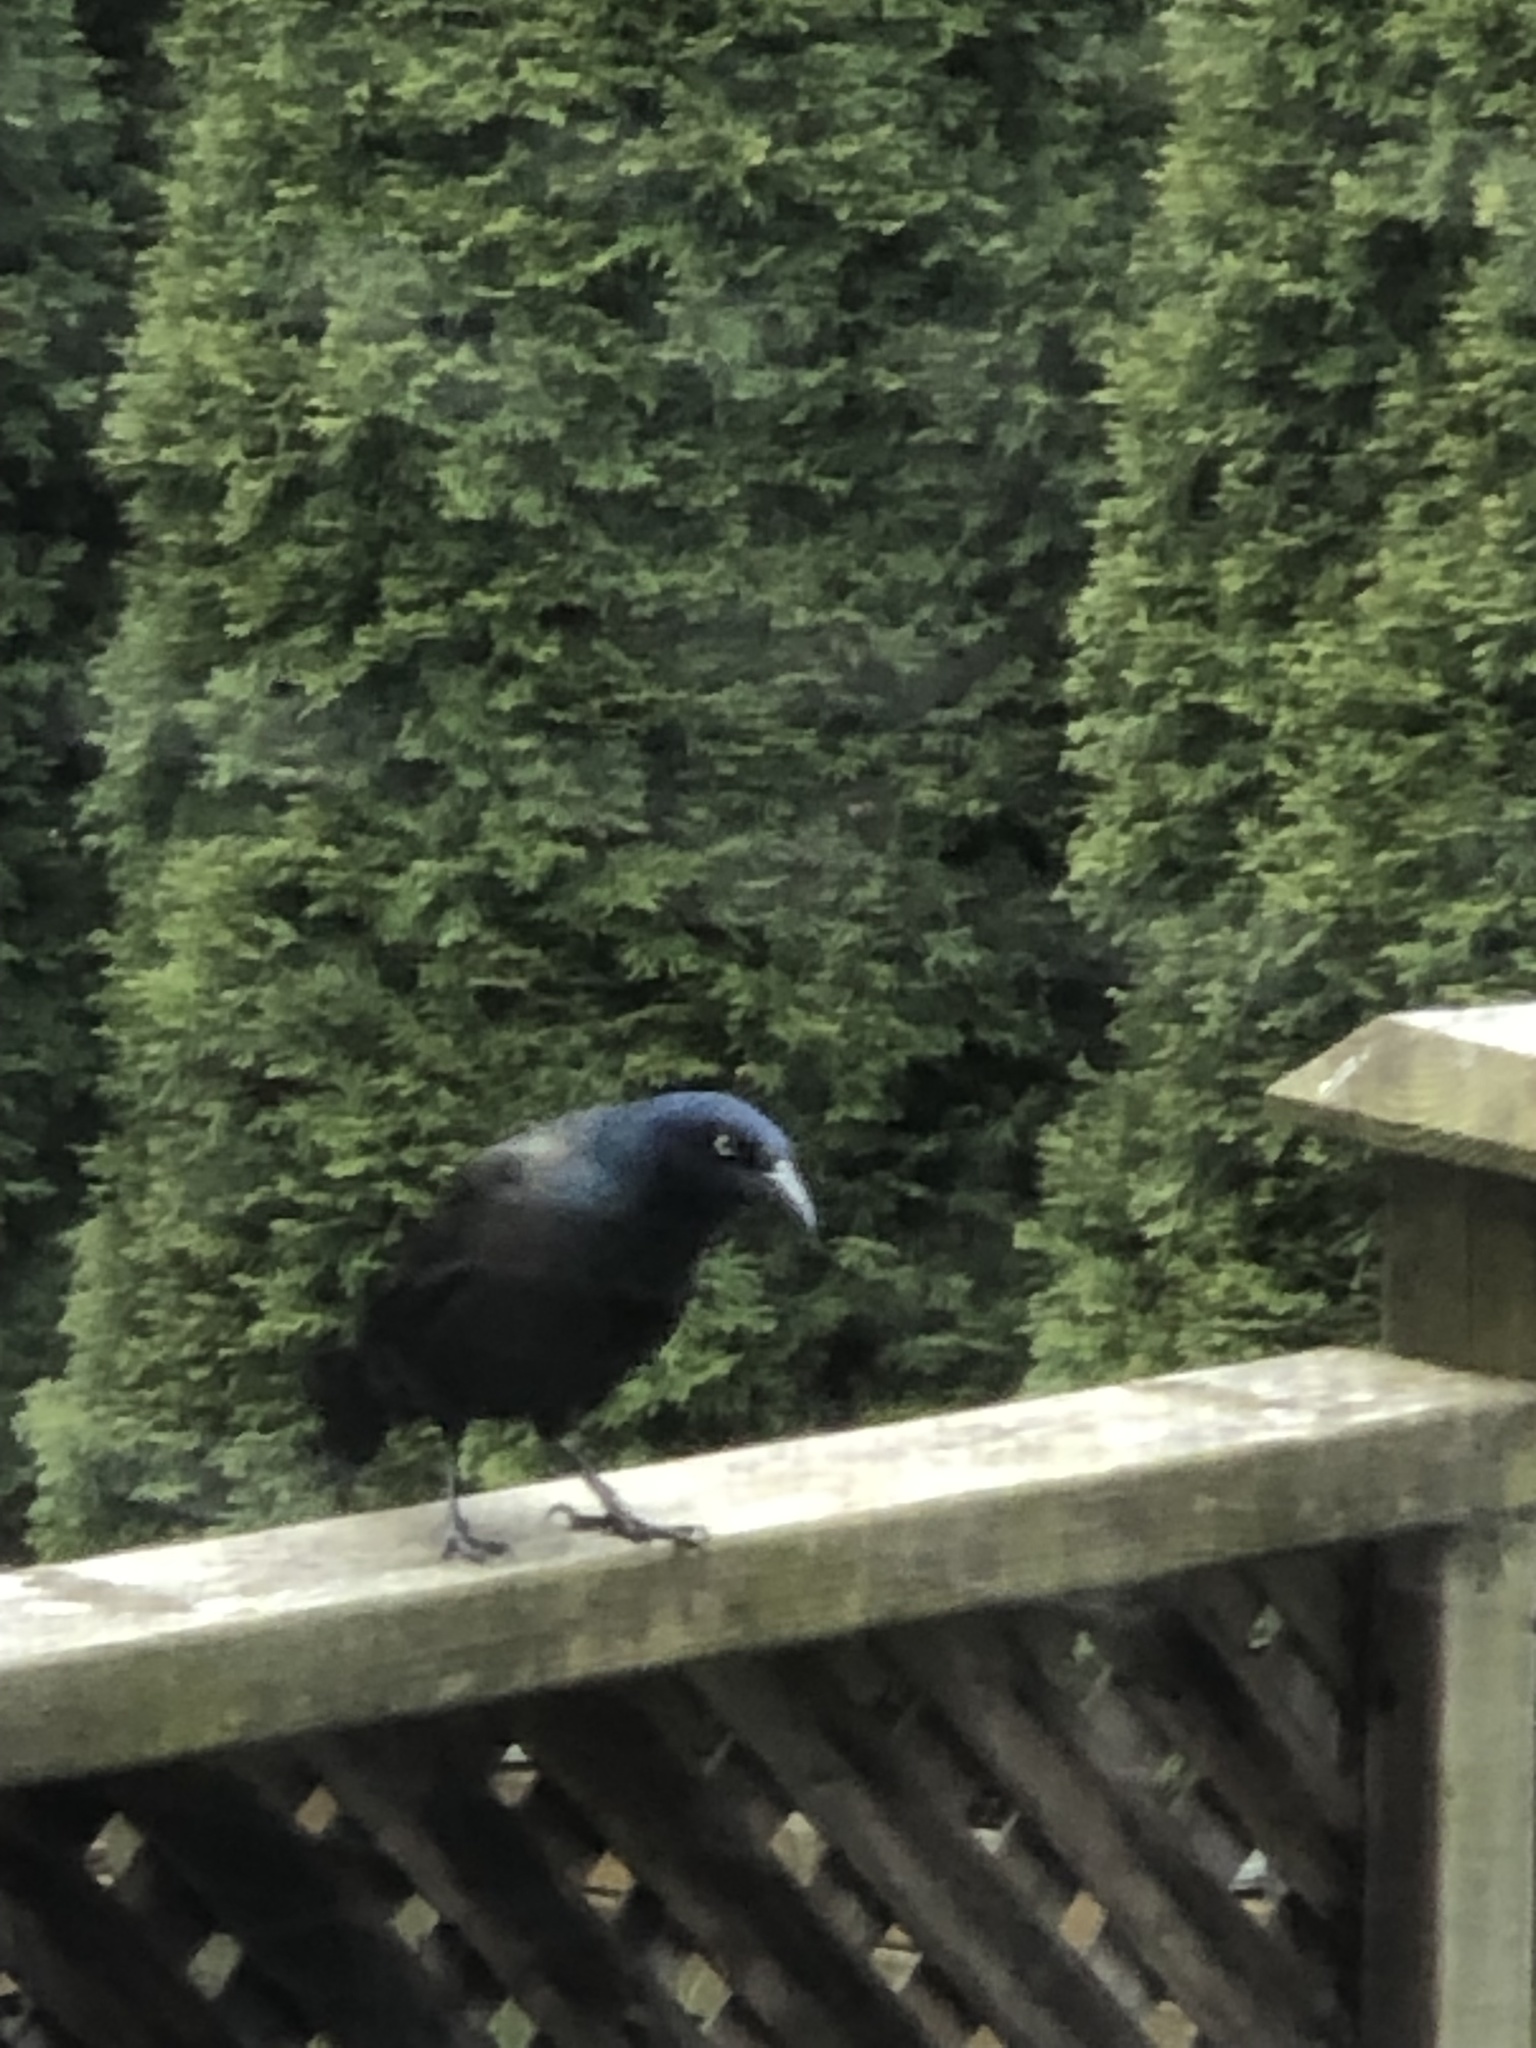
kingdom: Animalia
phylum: Chordata
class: Aves
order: Passeriformes
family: Icteridae
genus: Quiscalus
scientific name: Quiscalus quiscula
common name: Common grackle
